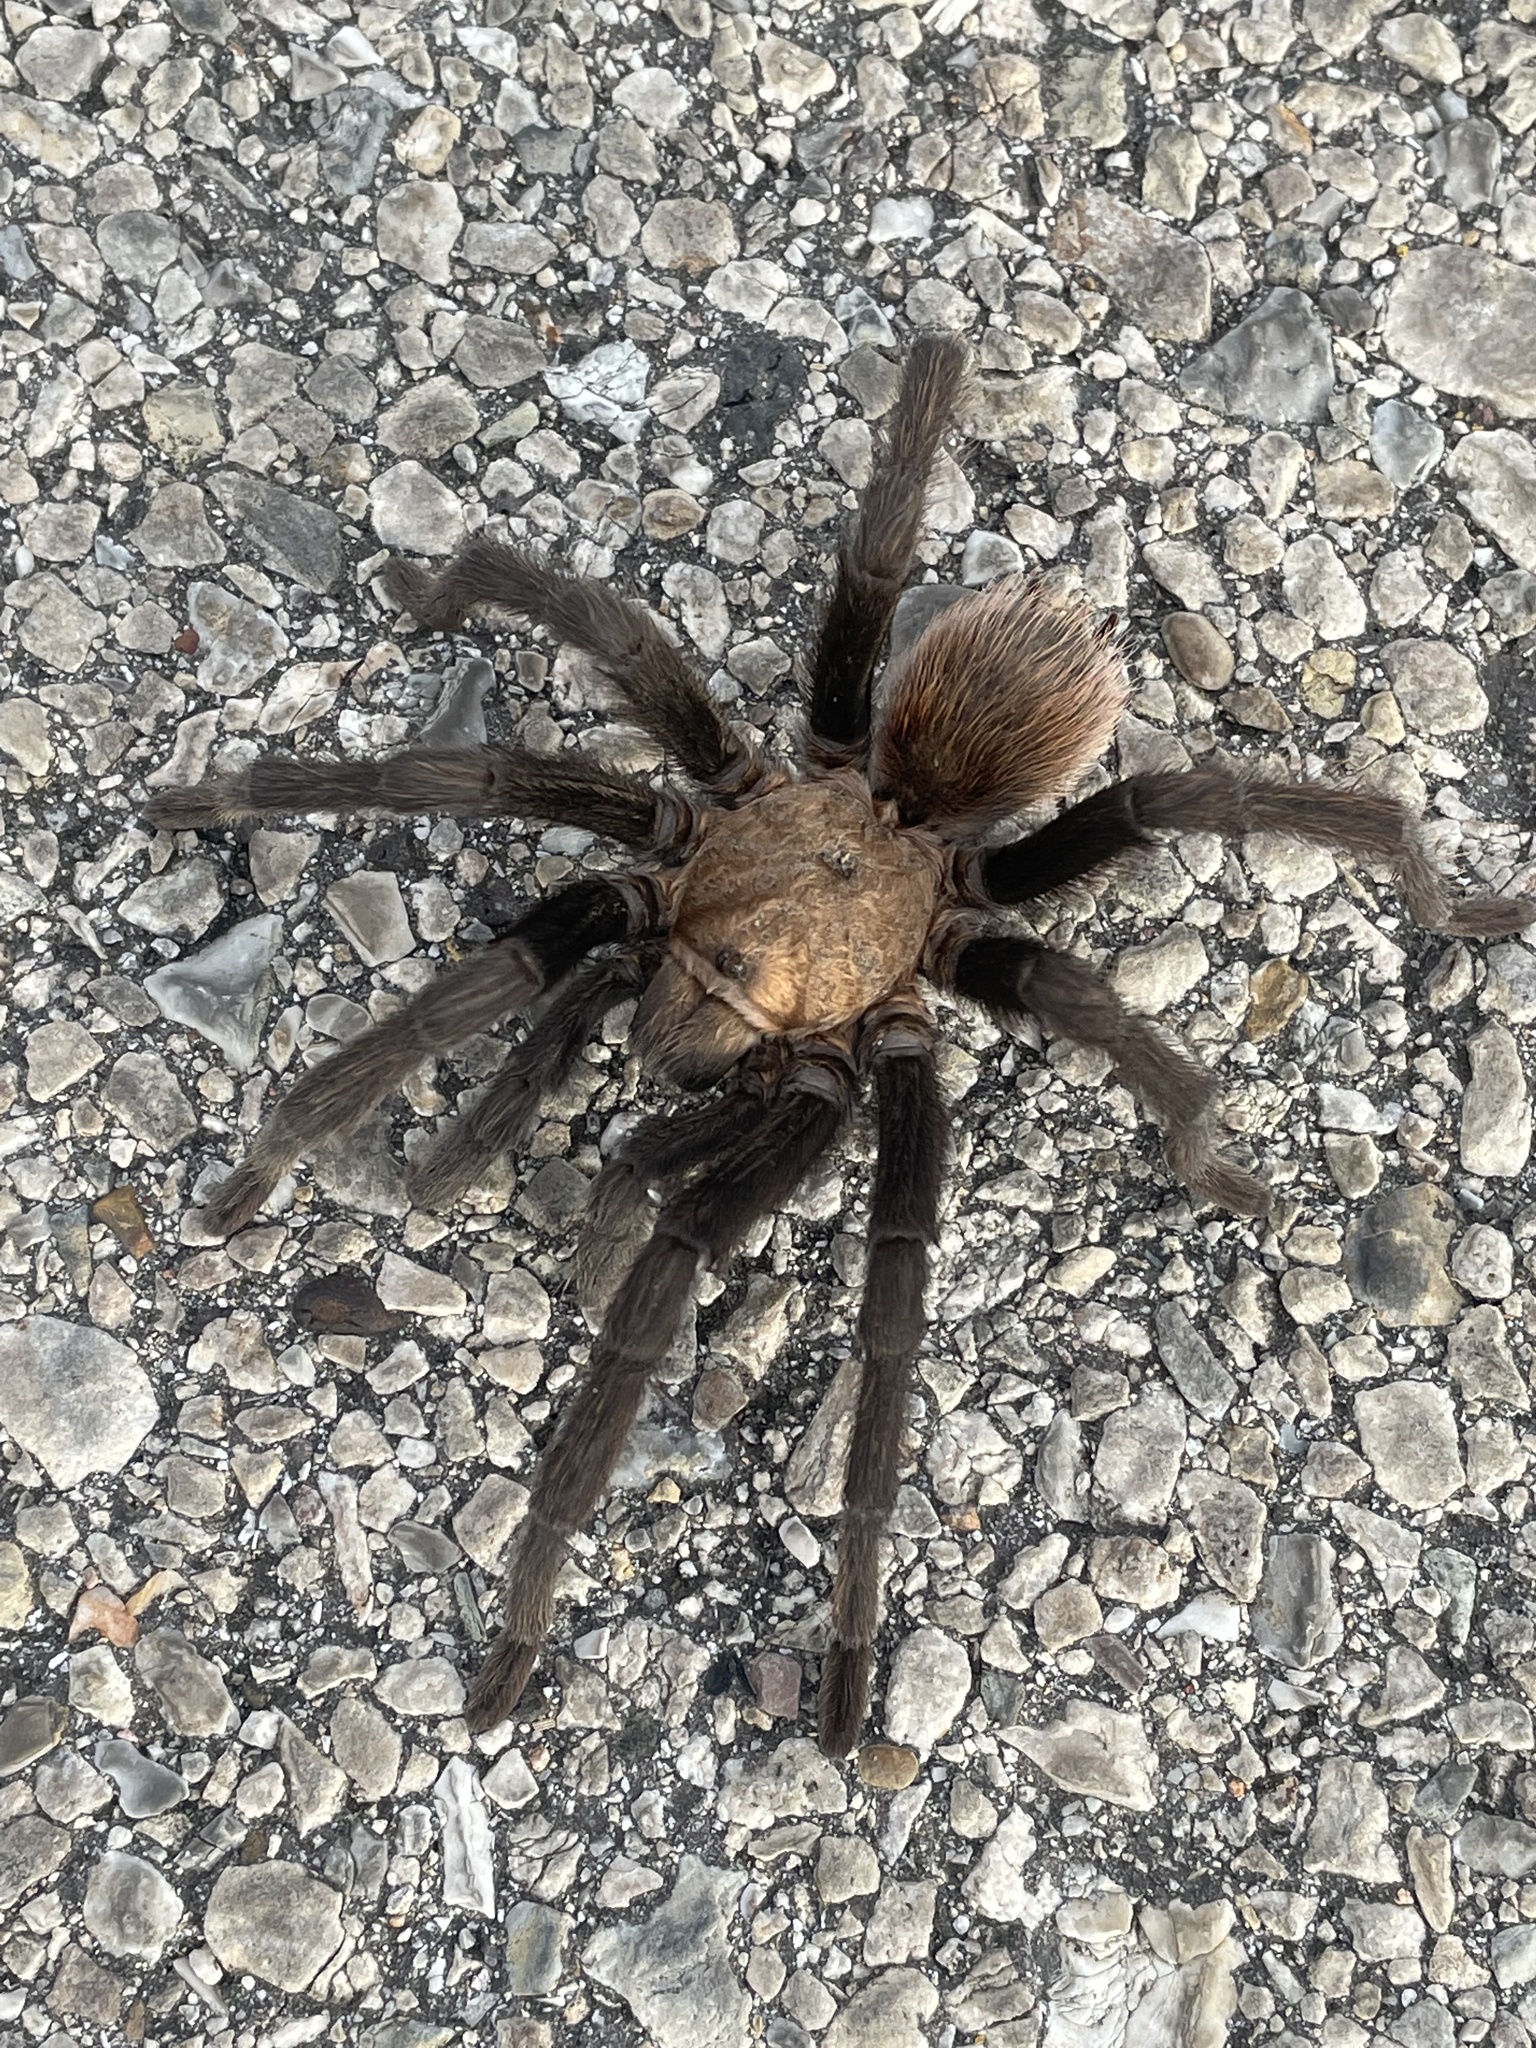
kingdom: Animalia
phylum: Arthropoda
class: Arachnida
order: Araneae
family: Theraphosidae
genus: Aphonopelma
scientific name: Aphonopelma hentzi
